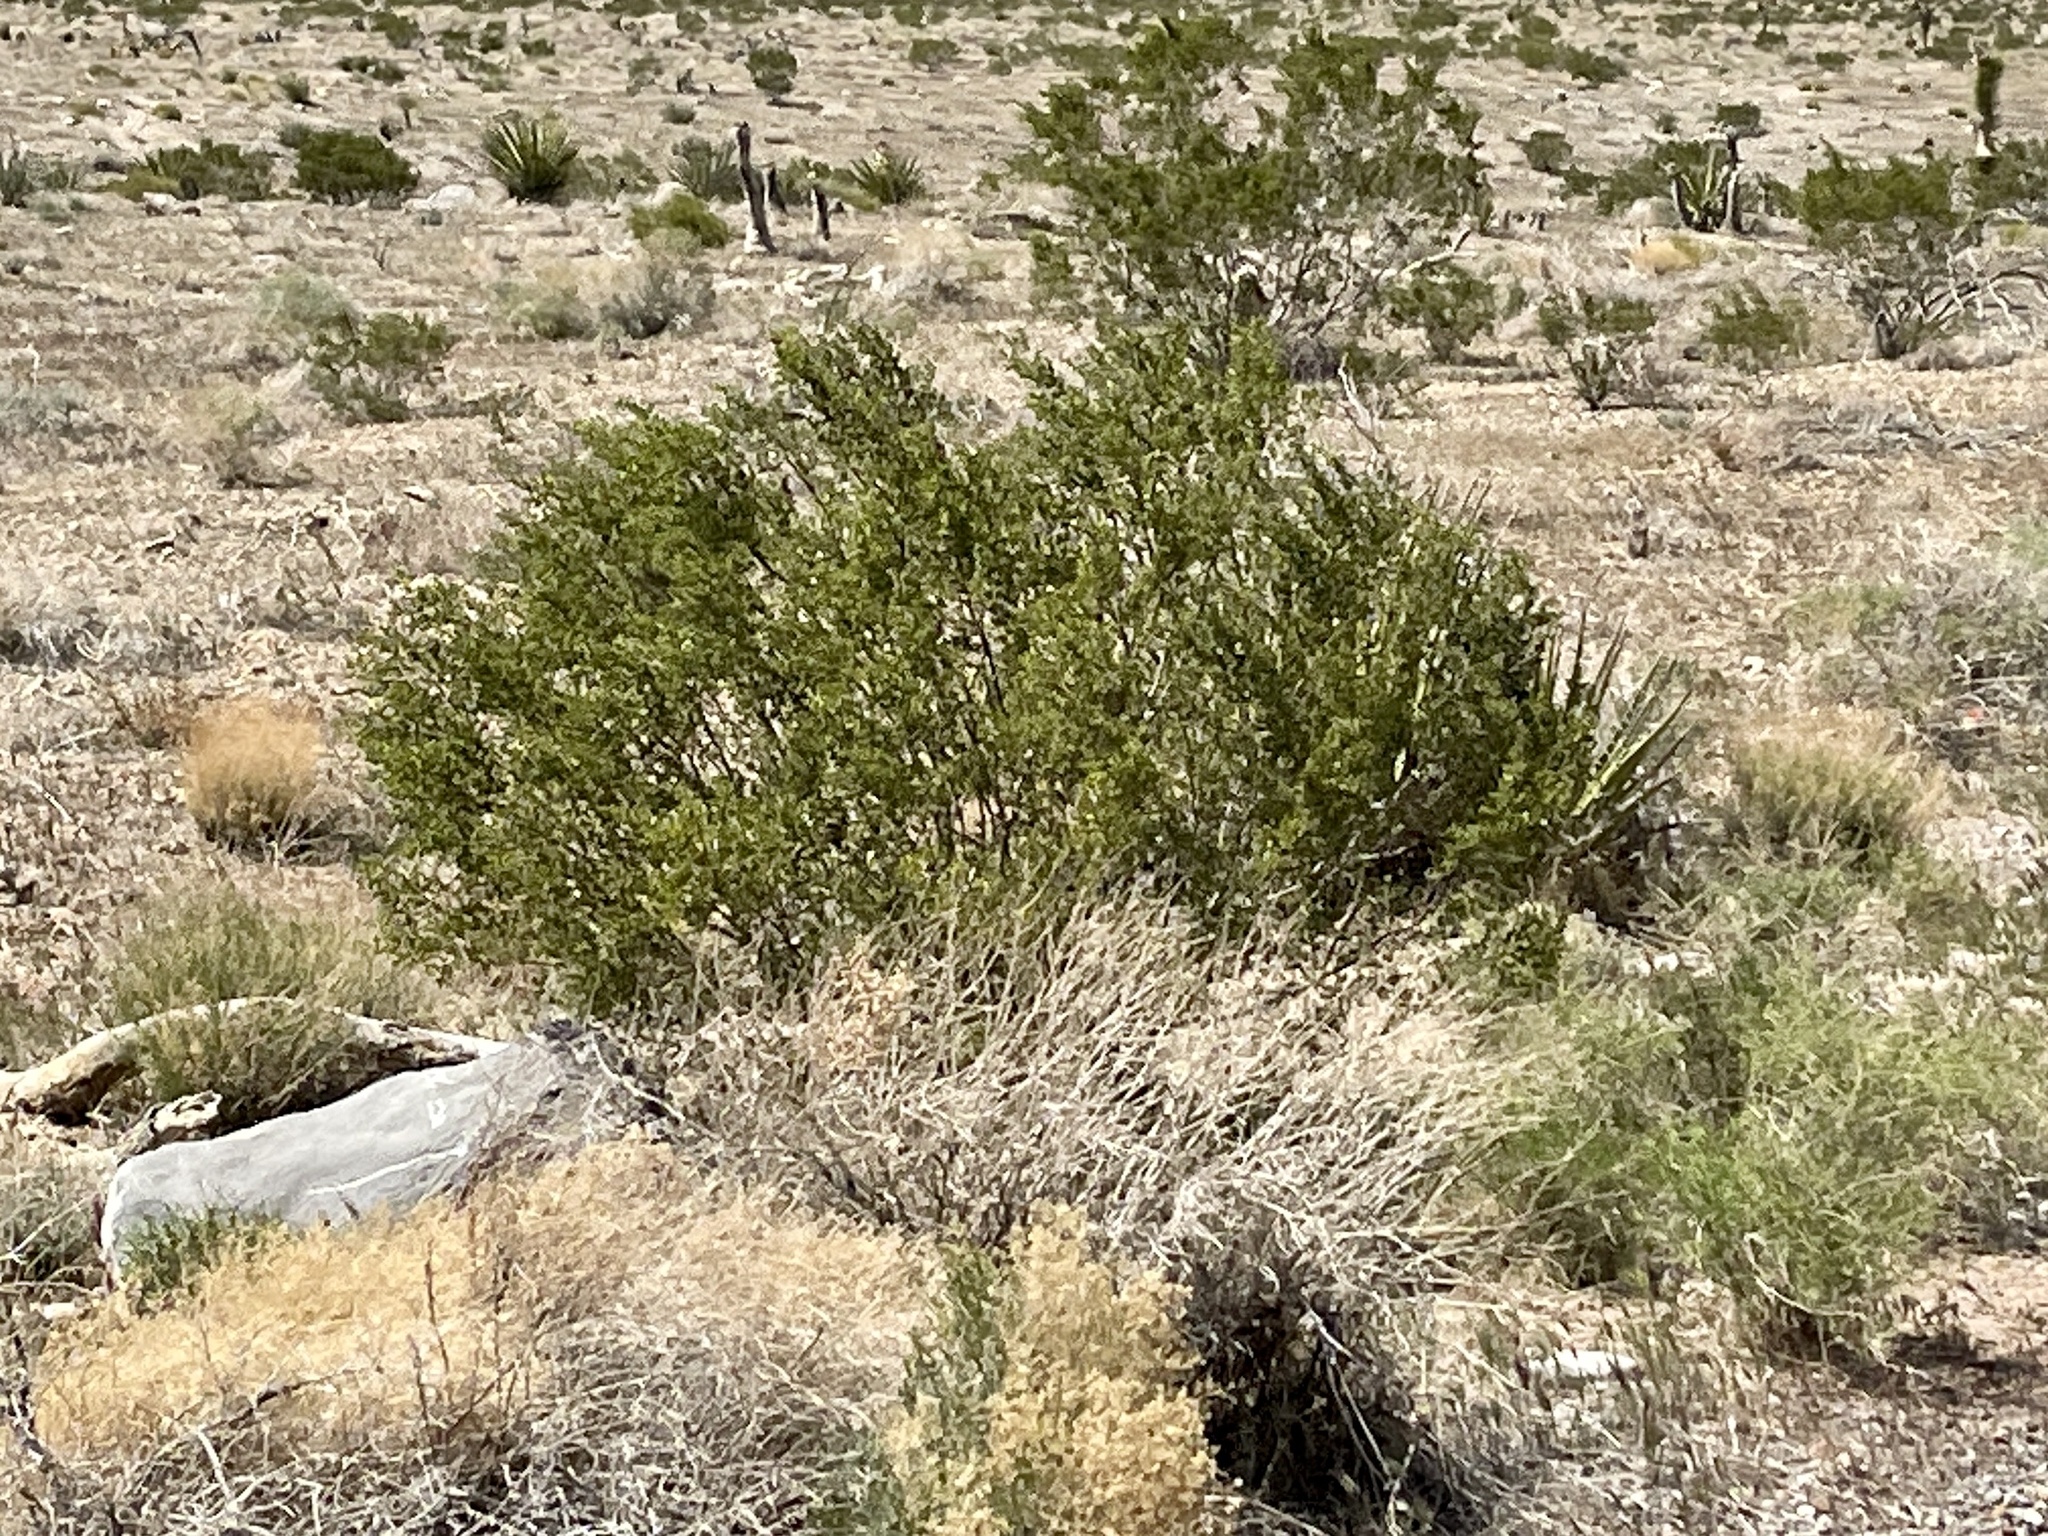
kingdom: Plantae
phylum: Tracheophyta
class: Magnoliopsida
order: Zygophyllales
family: Zygophyllaceae
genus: Larrea
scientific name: Larrea tridentata
